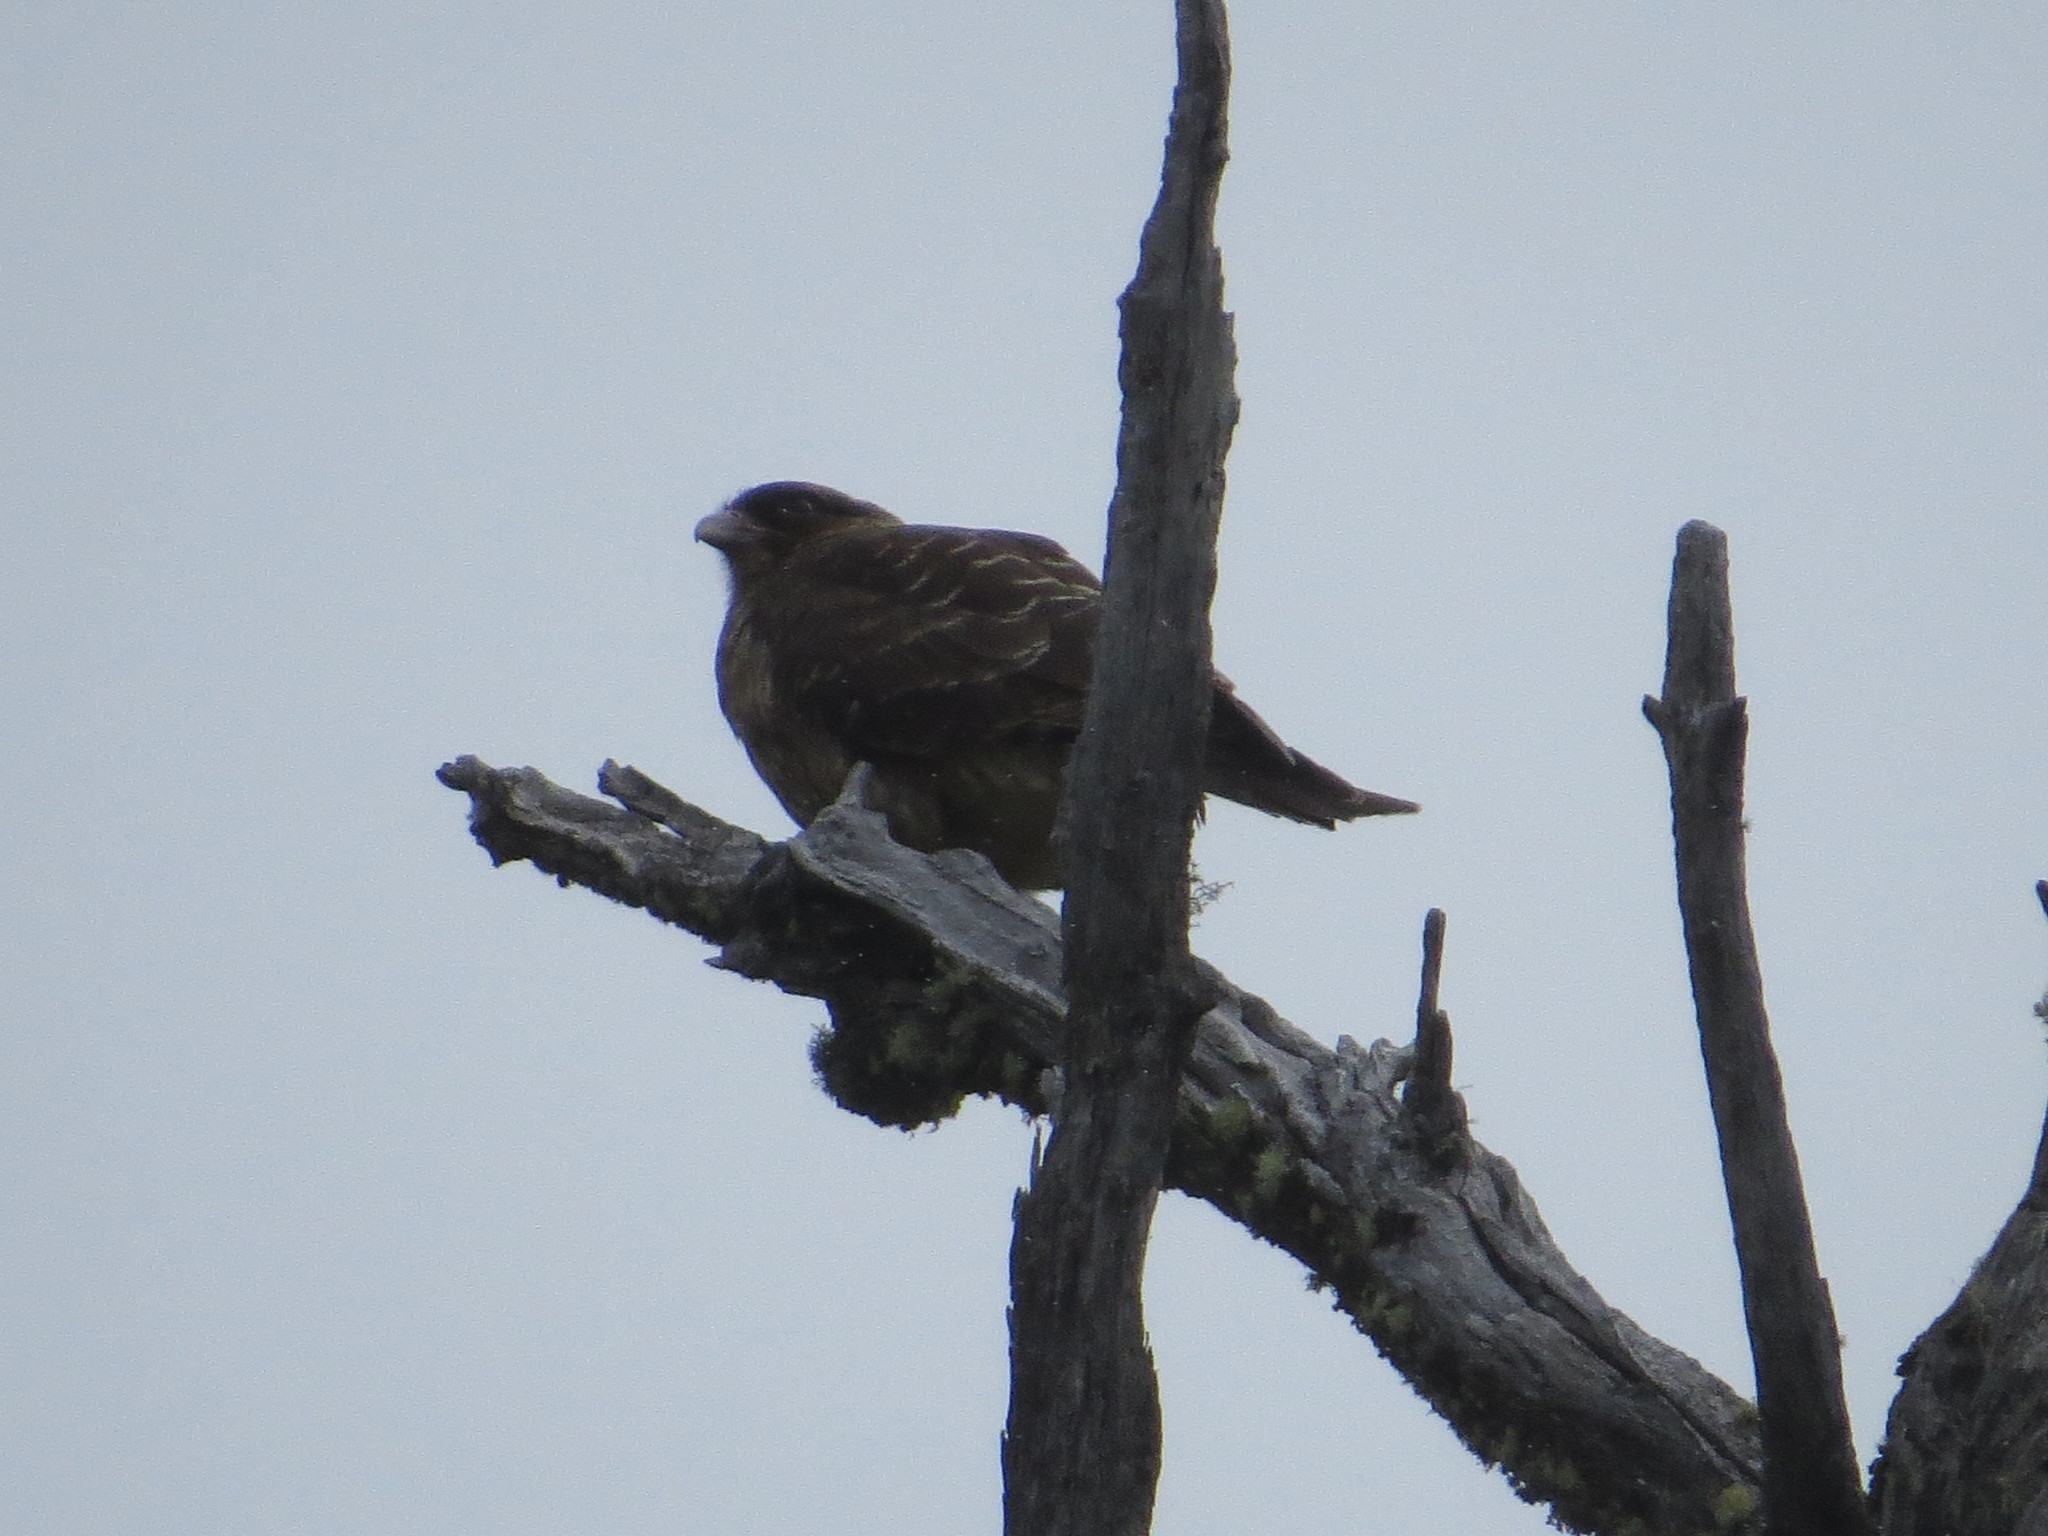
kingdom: Animalia
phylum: Chordata
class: Aves
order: Falconiformes
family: Falconidae
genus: Daptrius
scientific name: Daptrius
